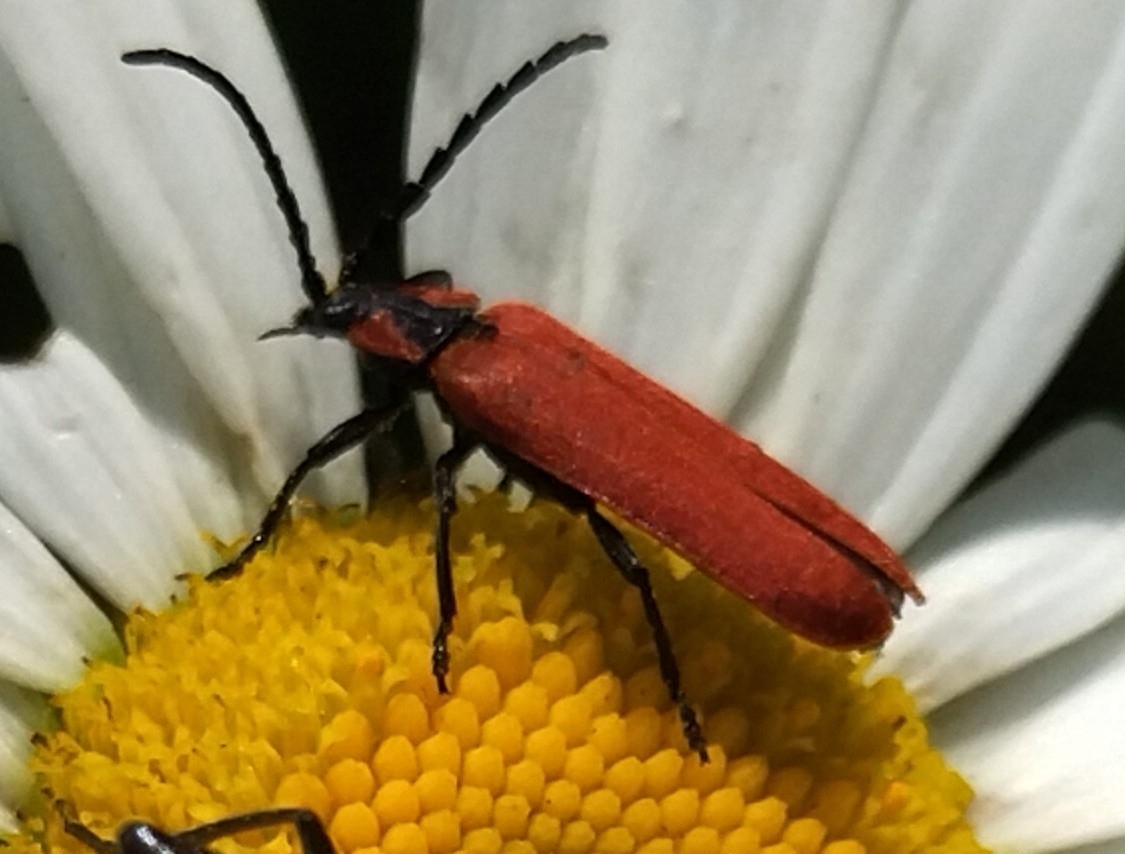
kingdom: Animalia
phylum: Arthropoda
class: Insecta
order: Coleoptera
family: Lycidae
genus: Lygistopterus
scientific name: Lygistopterus sanguineus
